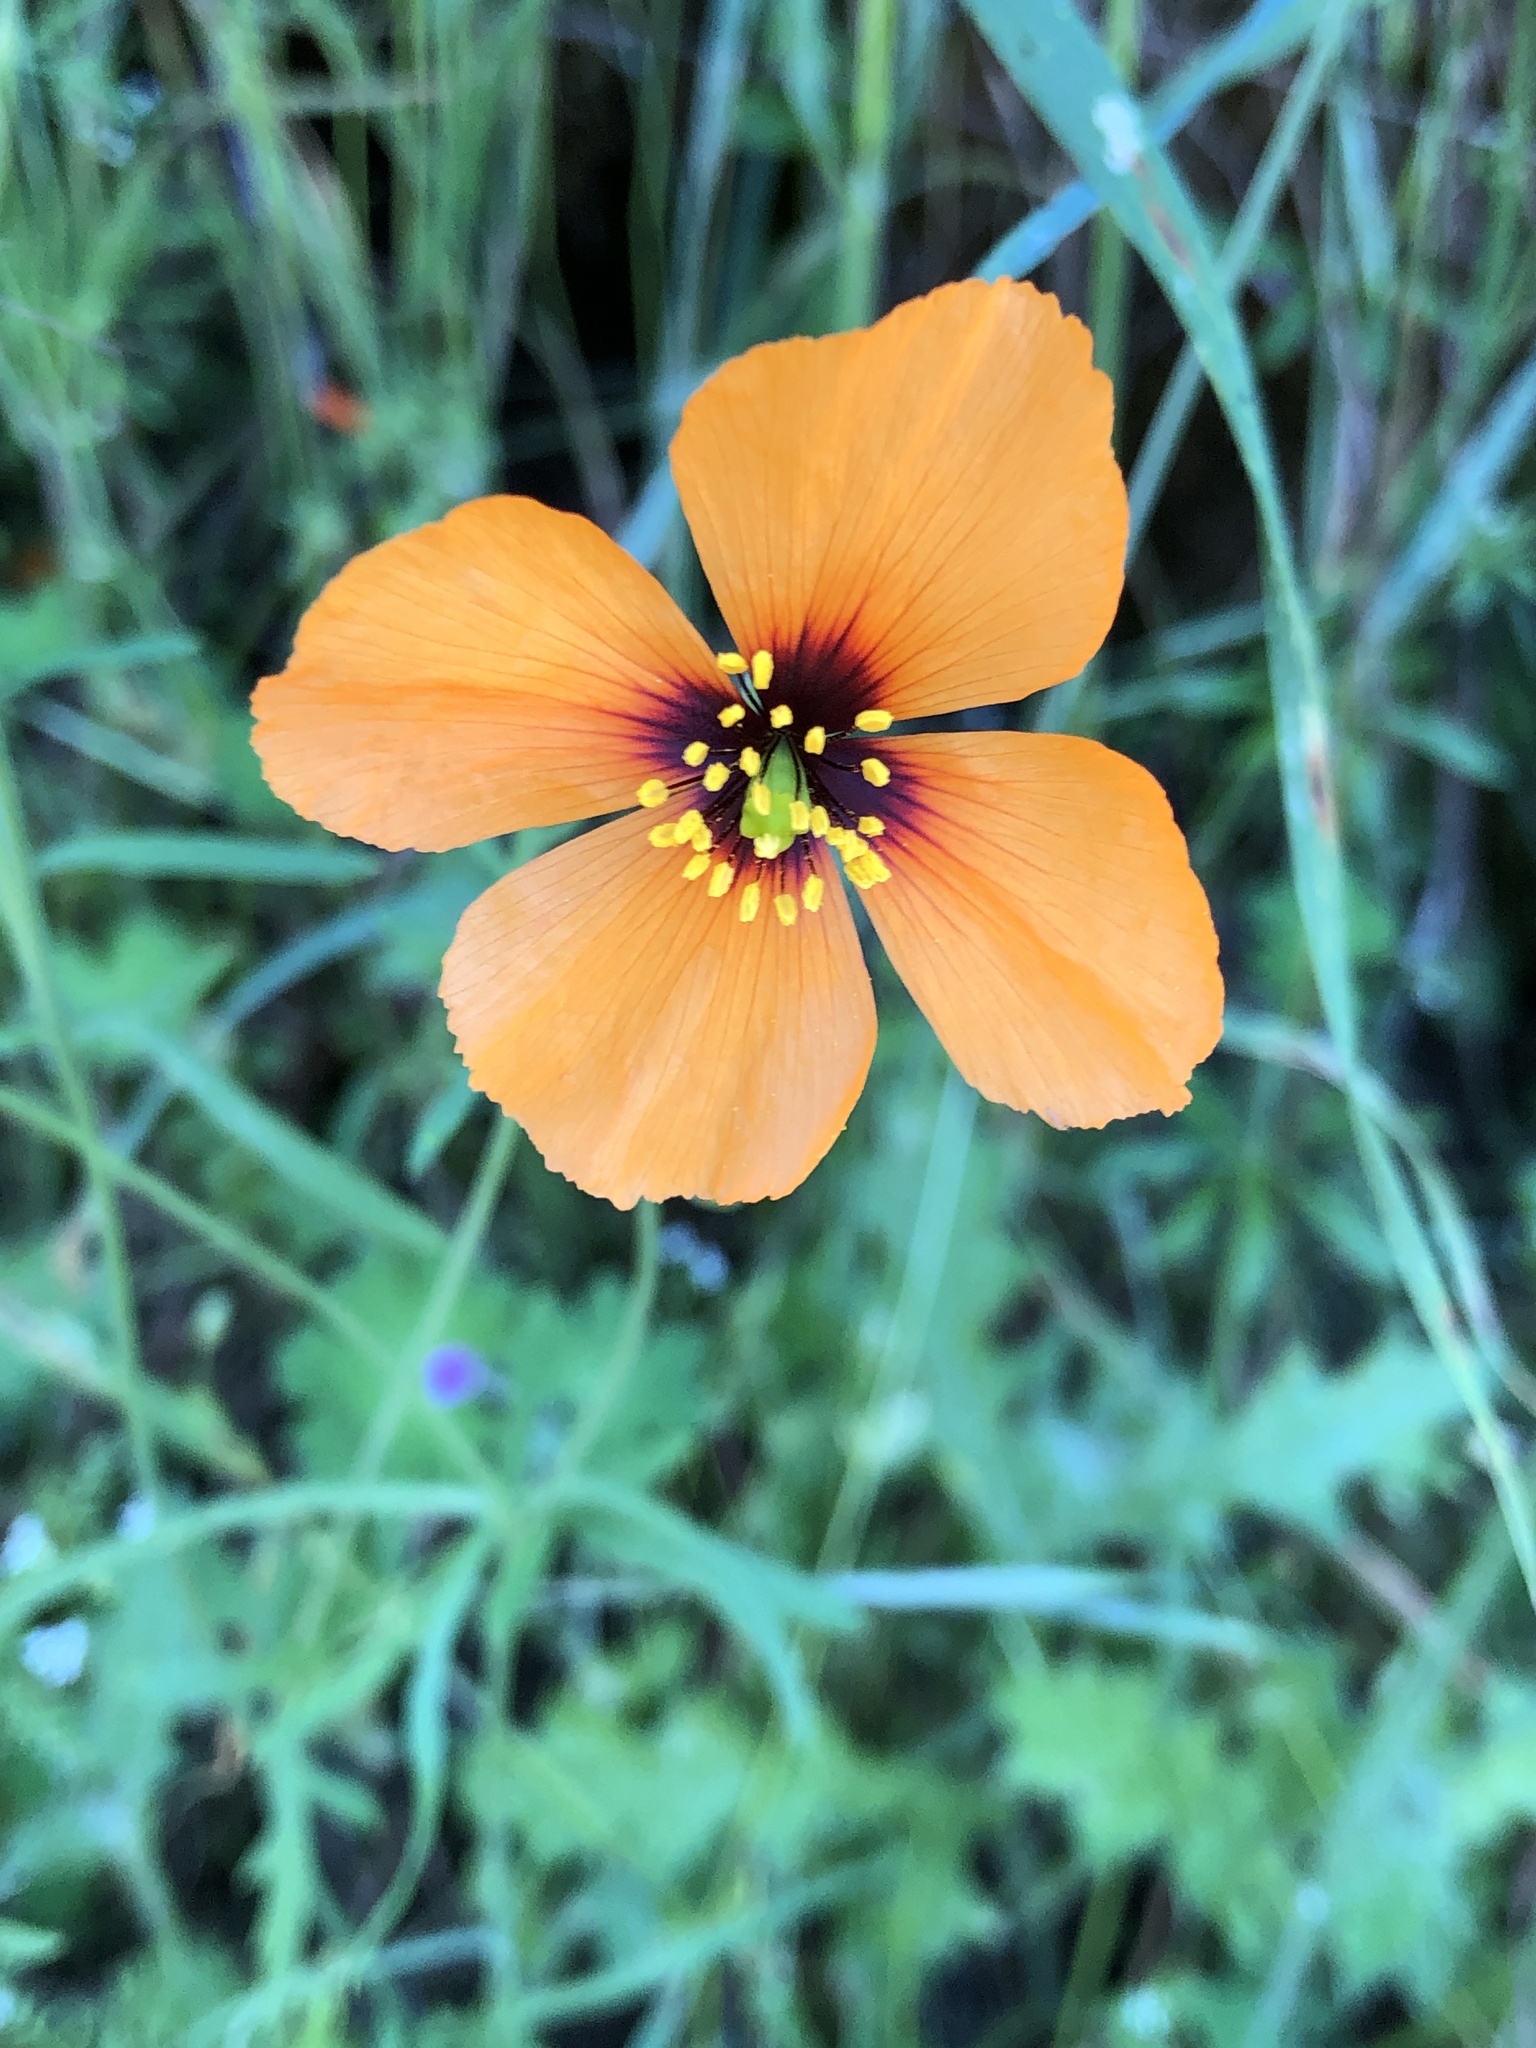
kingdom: Plantae
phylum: Tracheophyta
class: Magnoliopsida
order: Ranunculales
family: Papaveraceae
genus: Stylomecon
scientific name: Stylomecon heterophylla
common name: Flaming-poppy
